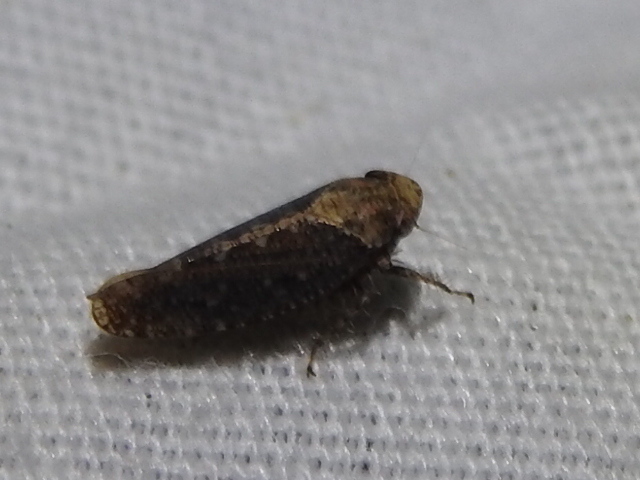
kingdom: Animalia
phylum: Arthropoda
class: Insecta
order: Hemiptera
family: Cicadellidae
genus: Excultanus
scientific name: Excultanus excultus
